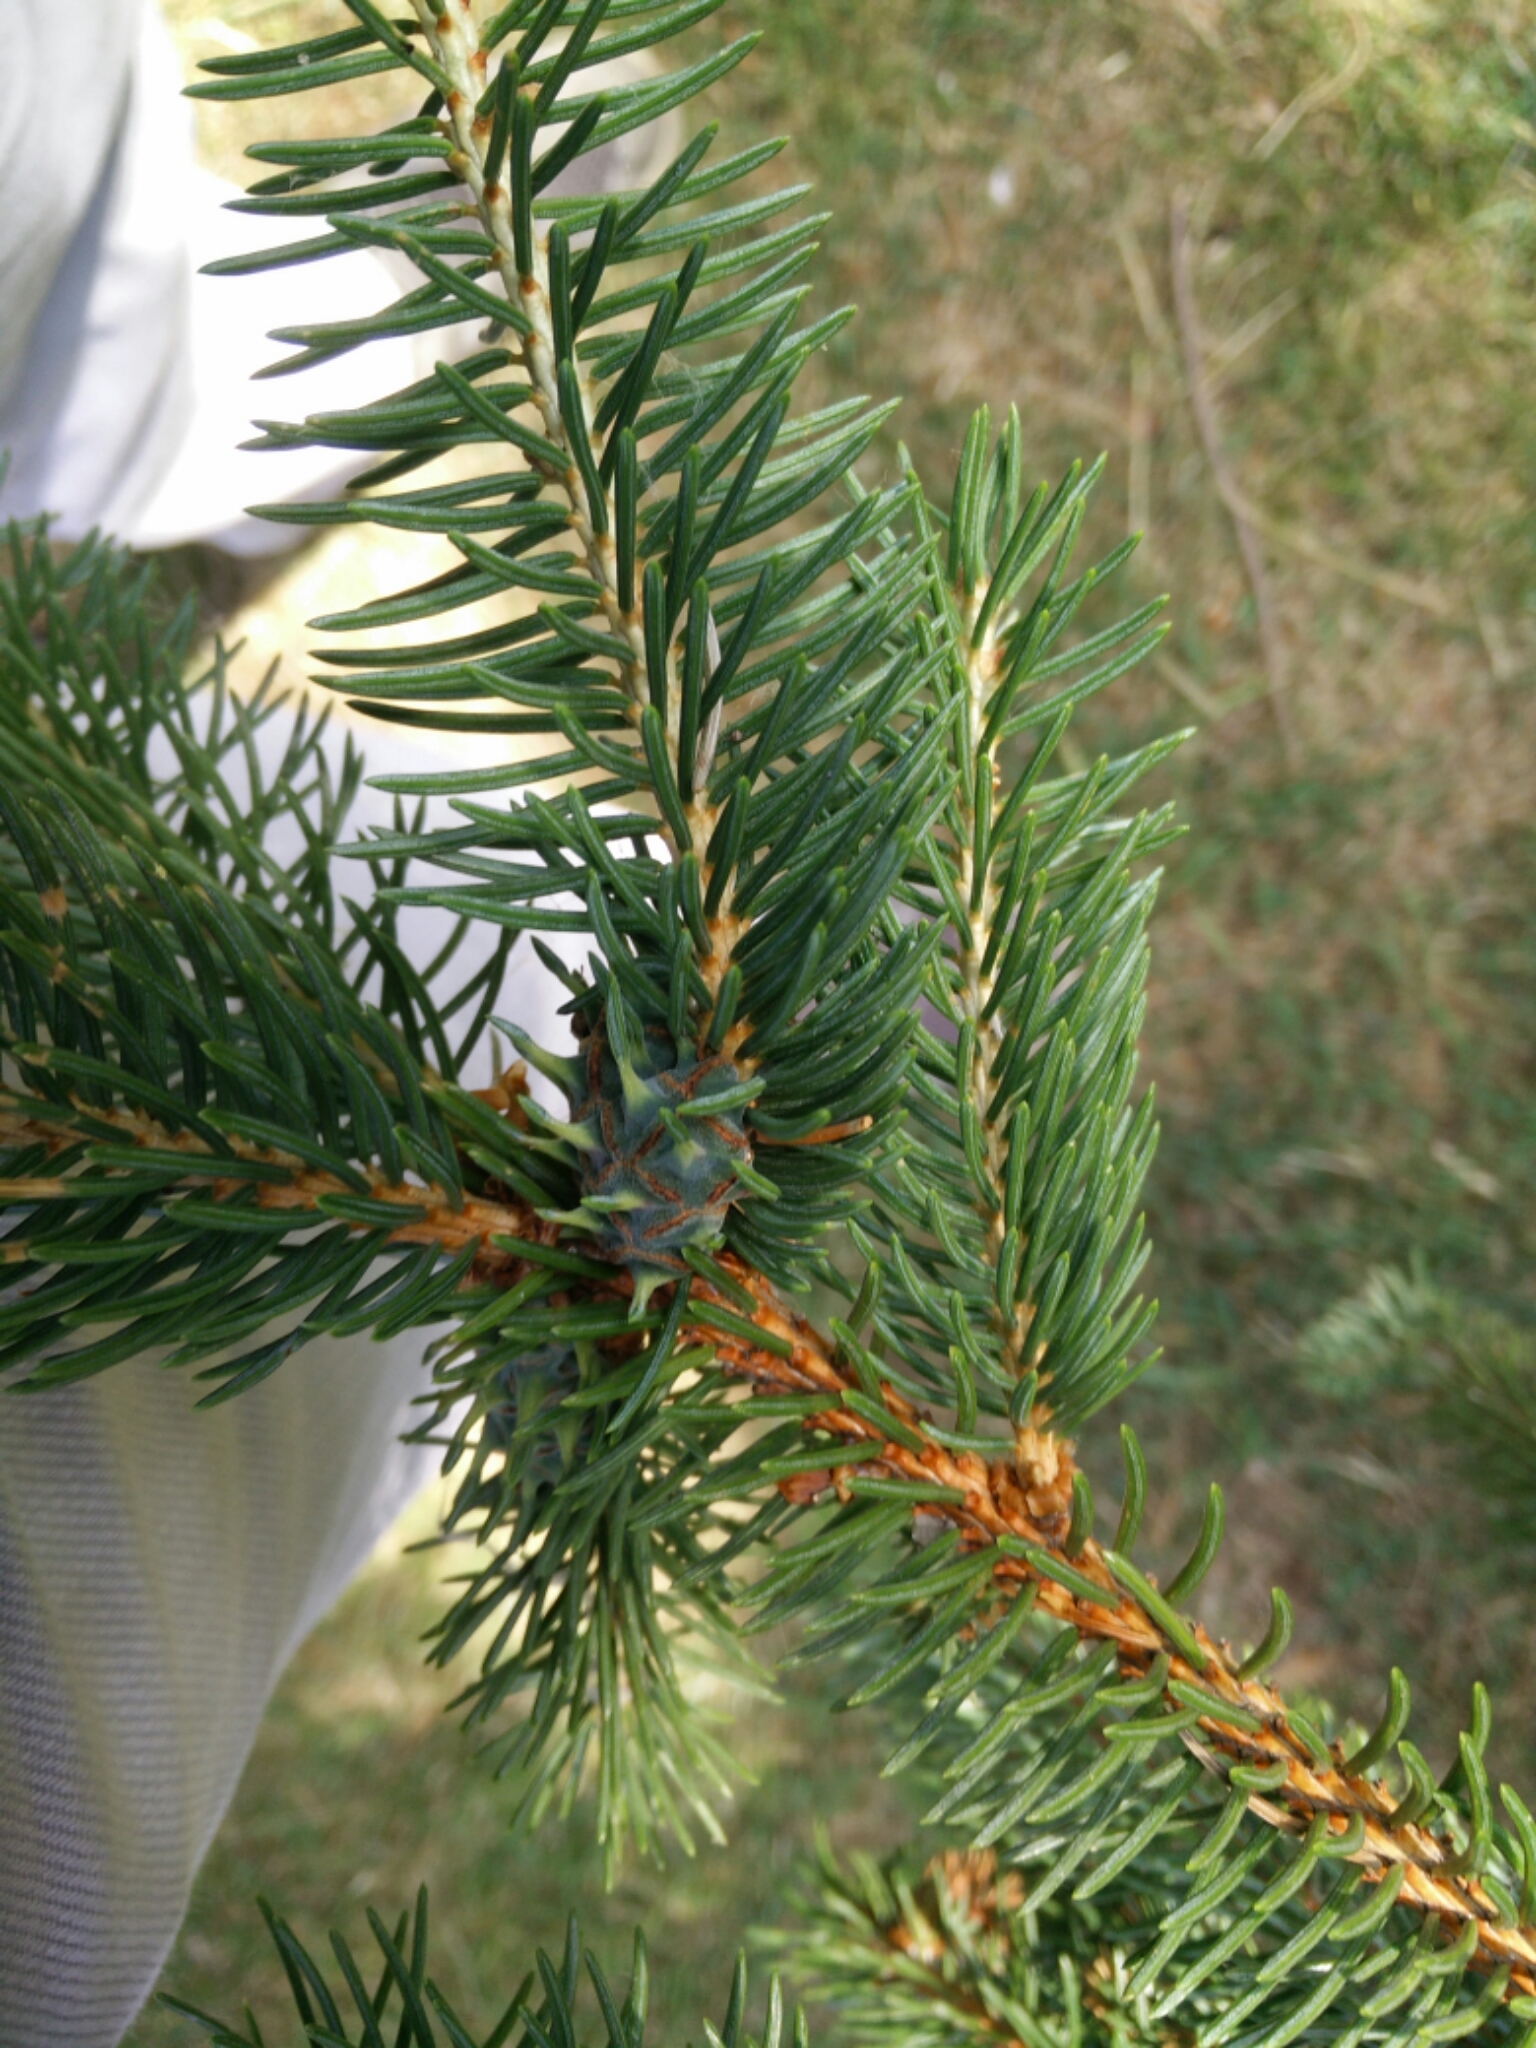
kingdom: Animalia
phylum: Arthropoda
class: Insecta
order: Hemiptera
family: Adelgidae
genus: Adelges
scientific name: Adelges abietis
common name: Eastern spruce gall adelgid
